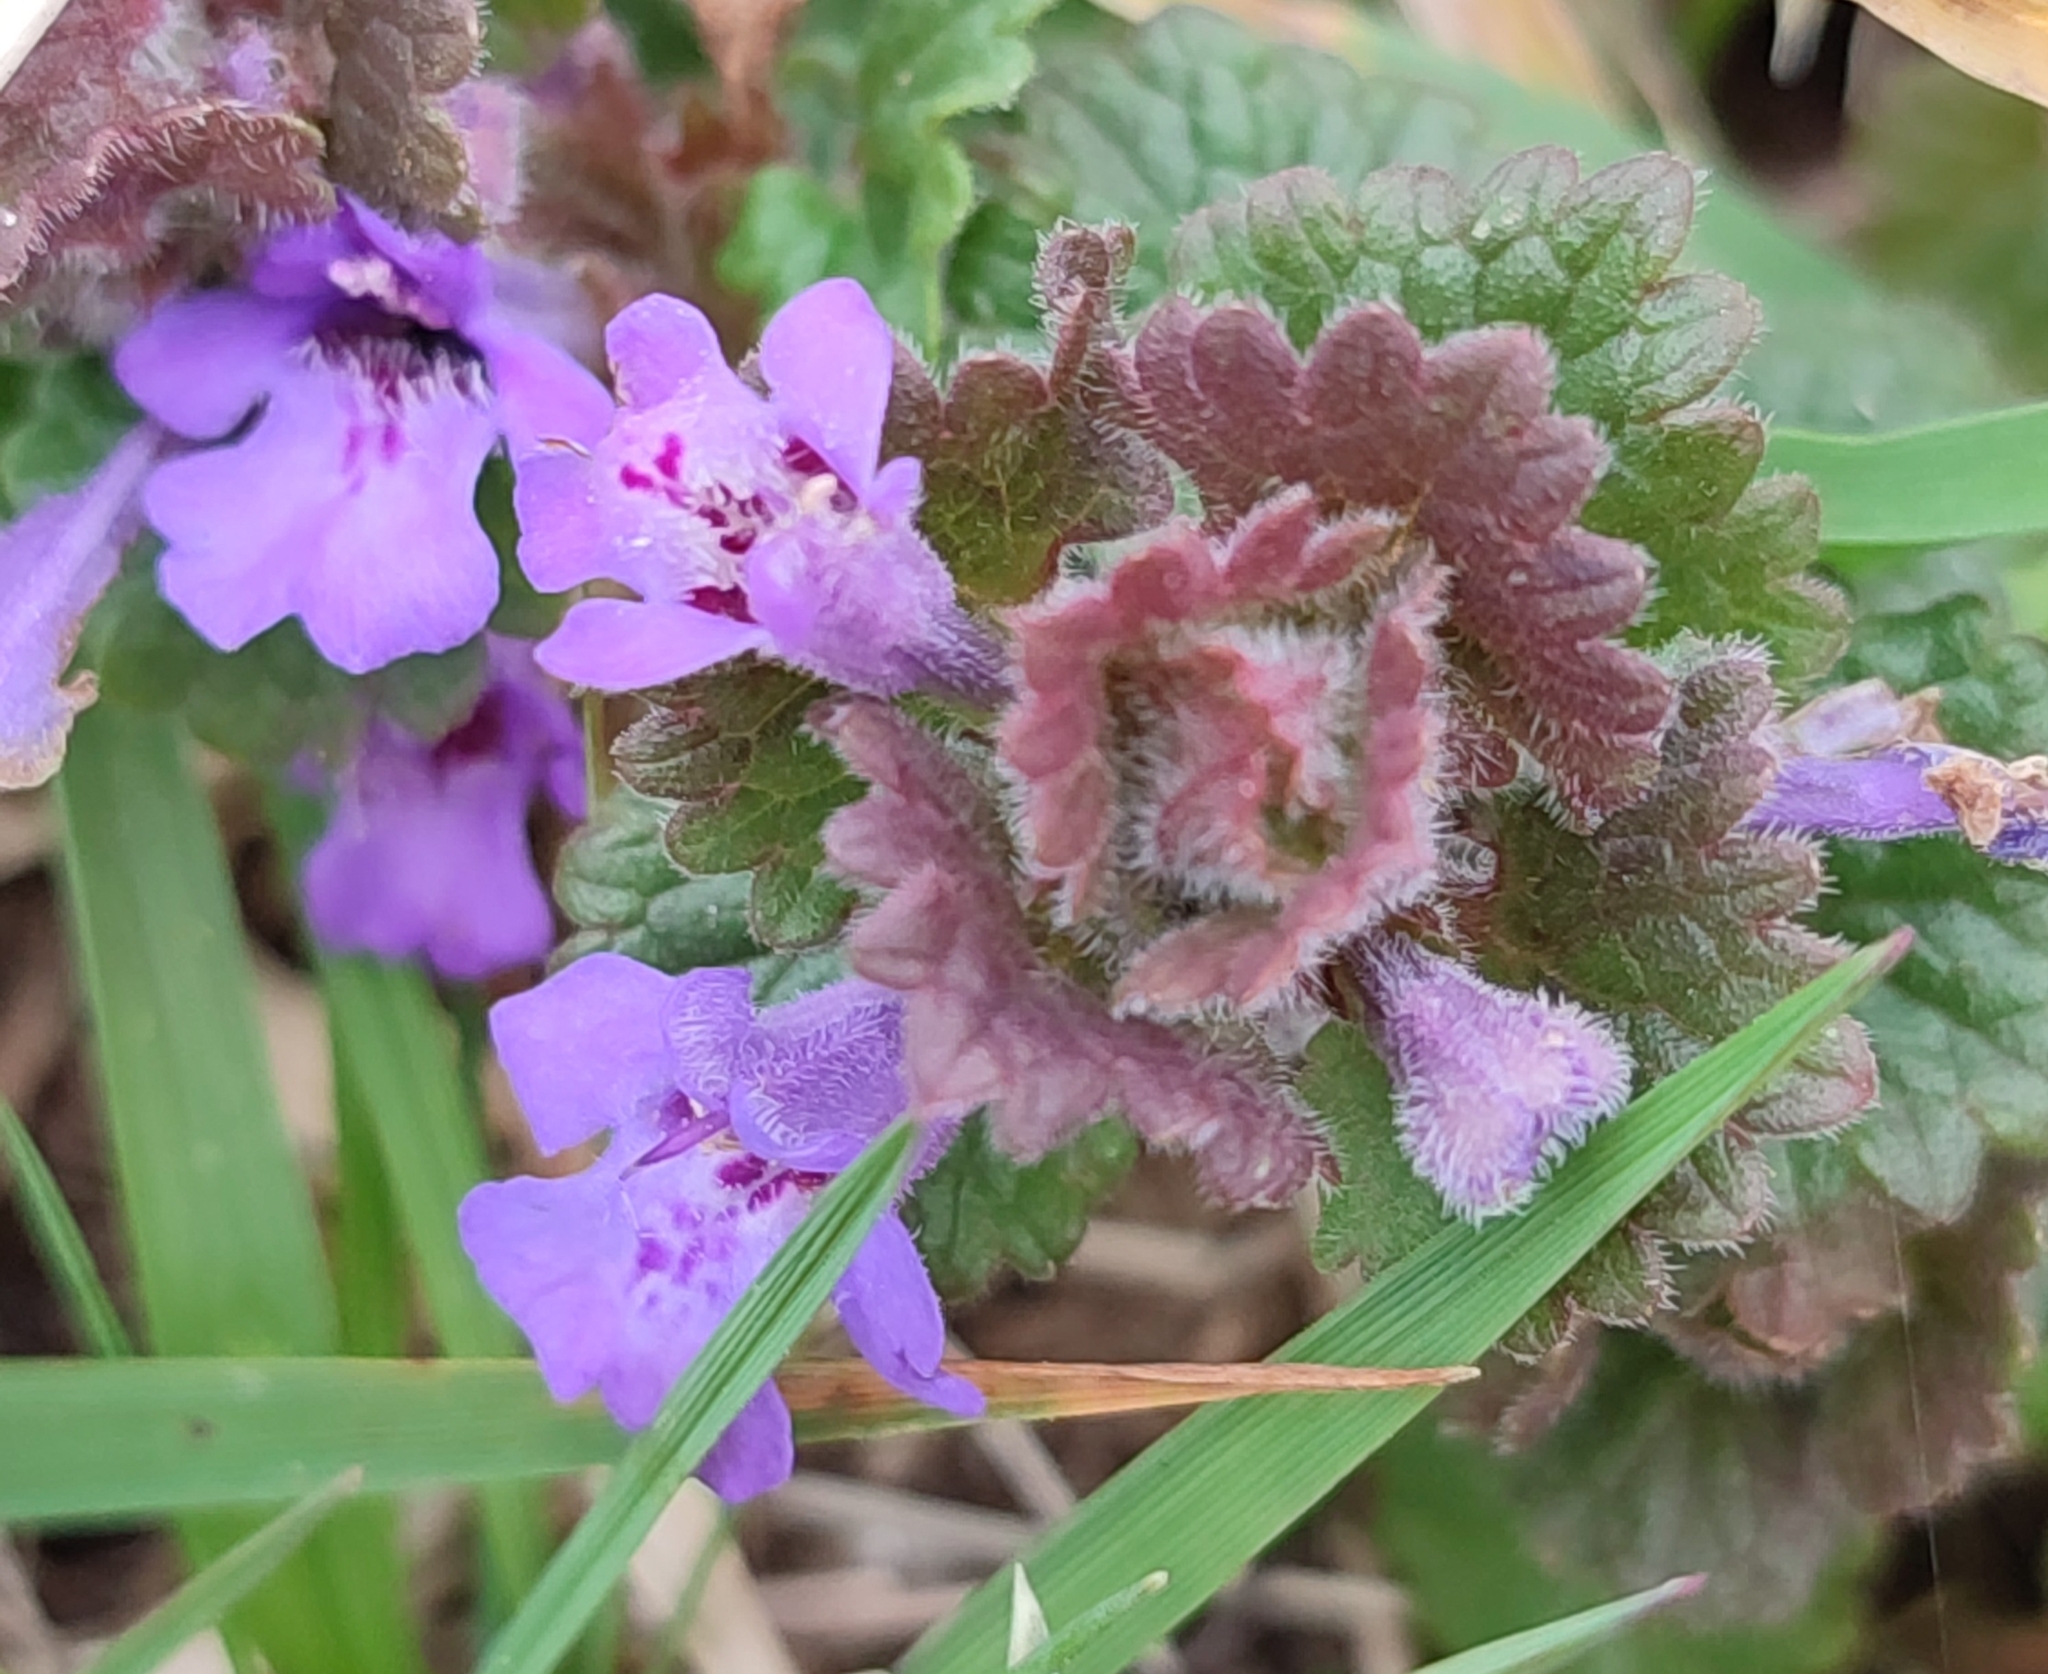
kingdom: Plantae
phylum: Tracheophyta
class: Magnoliopsida
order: Lamiales
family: Lamiaceae
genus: Glechoma
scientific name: Glechoma hederacea
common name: Ground ivy
